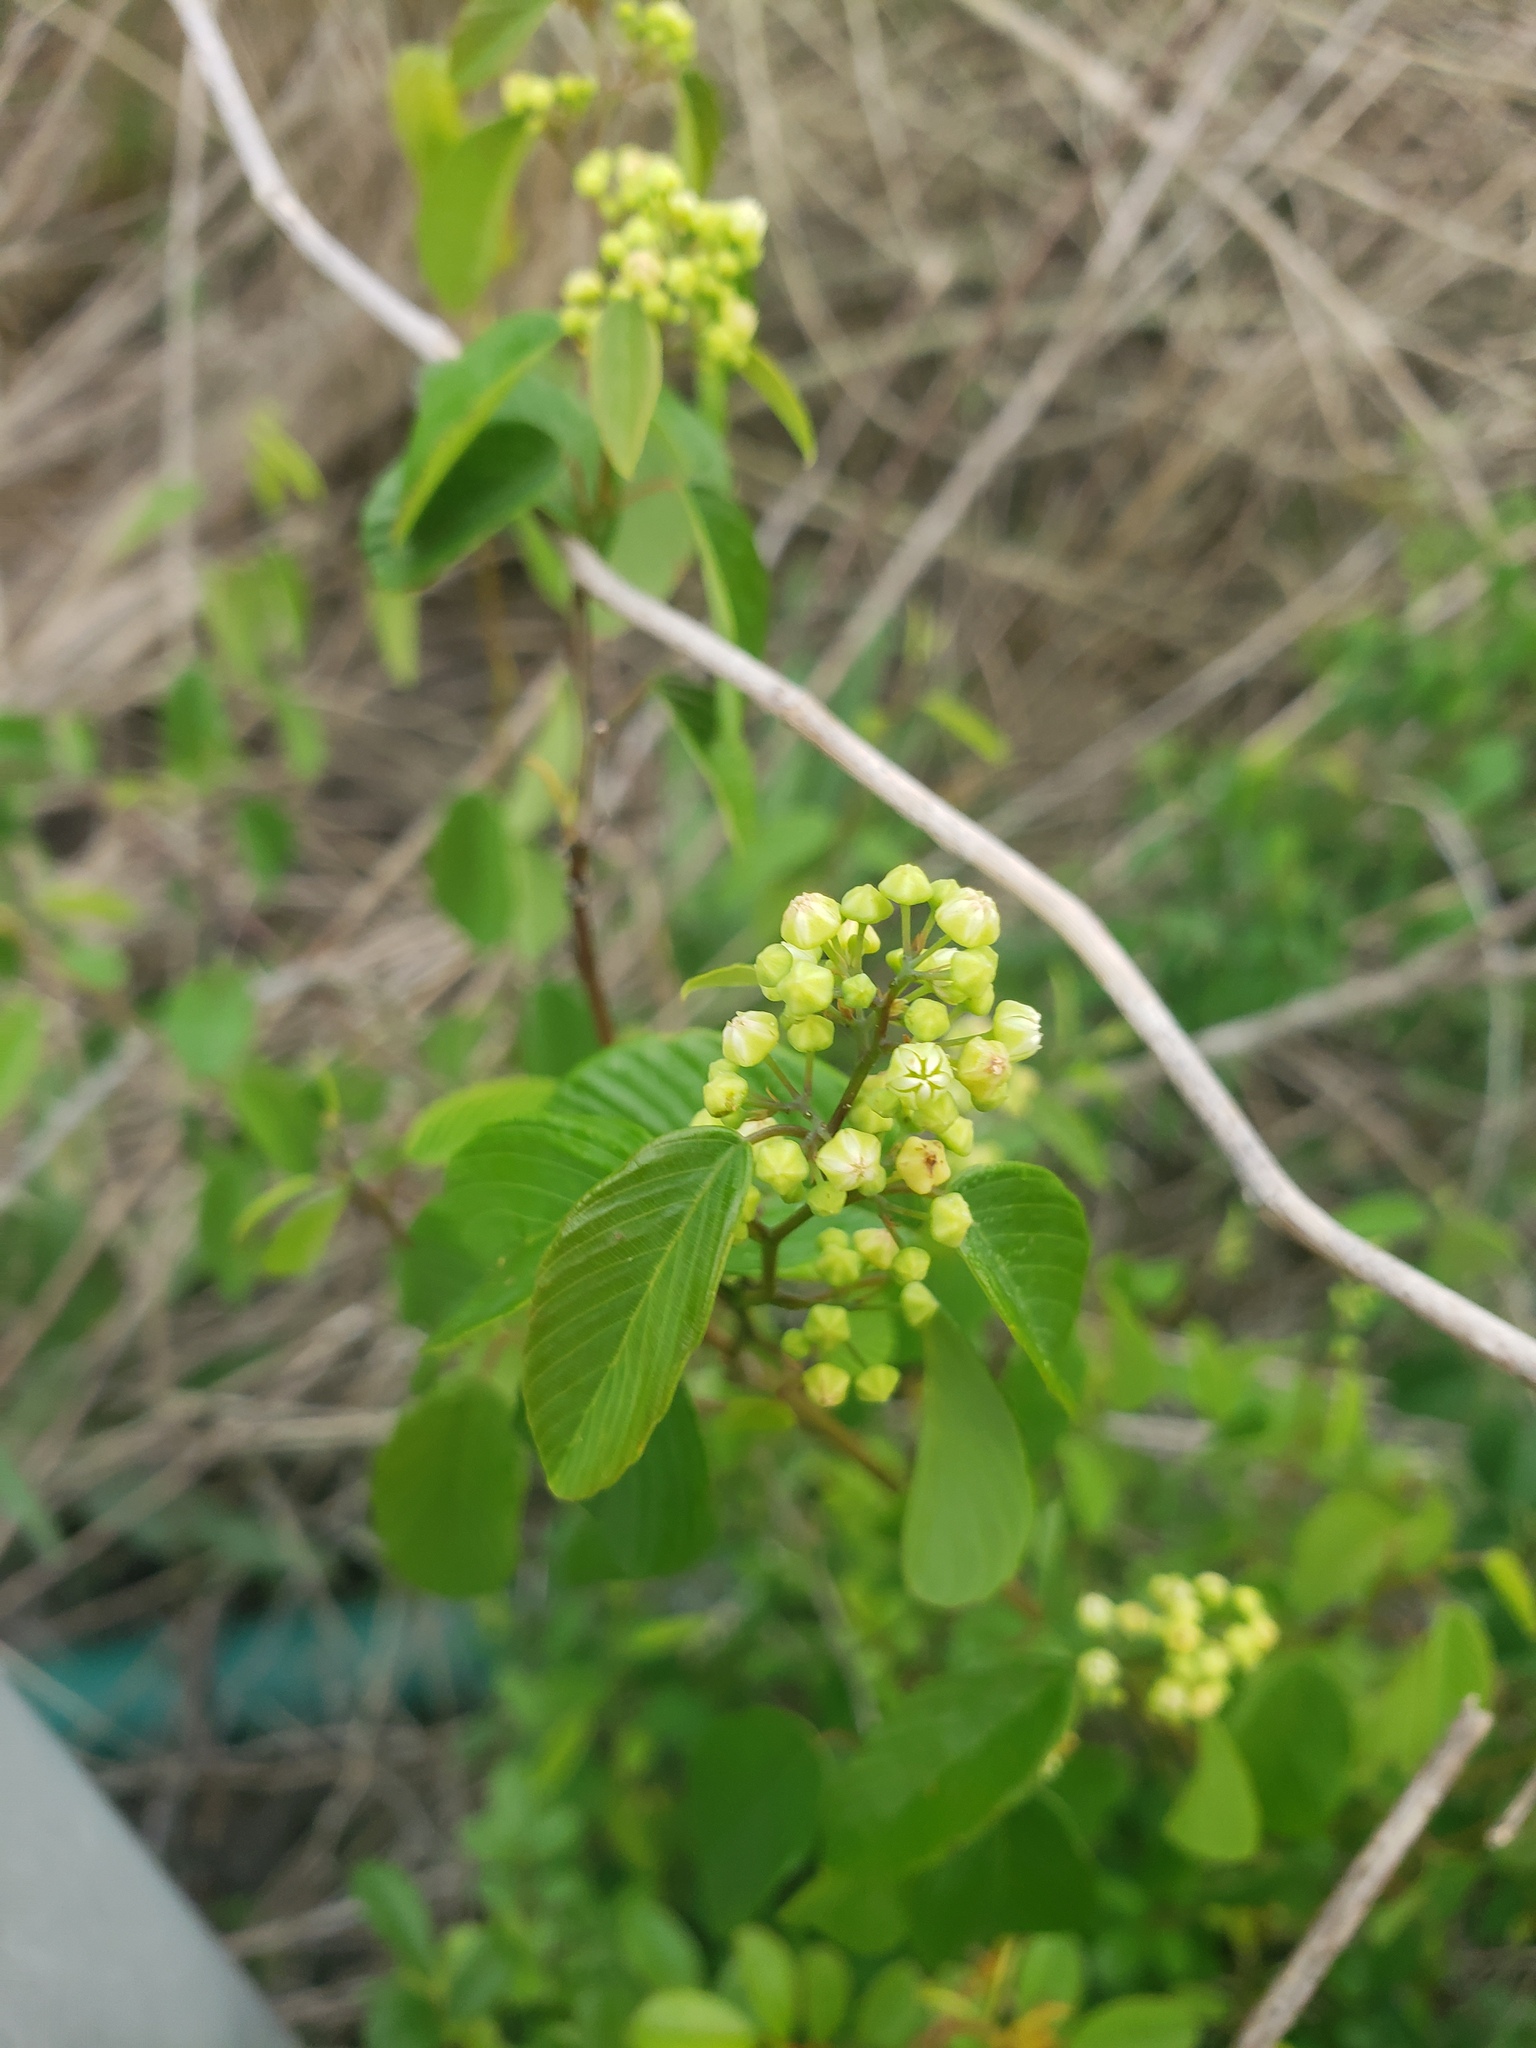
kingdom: Plantae
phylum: Tracheophyta
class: Magnoliopsida
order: Rosales
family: Rhamnaceae
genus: Berchemia
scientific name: Berchemia scandens
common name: Supplejack
